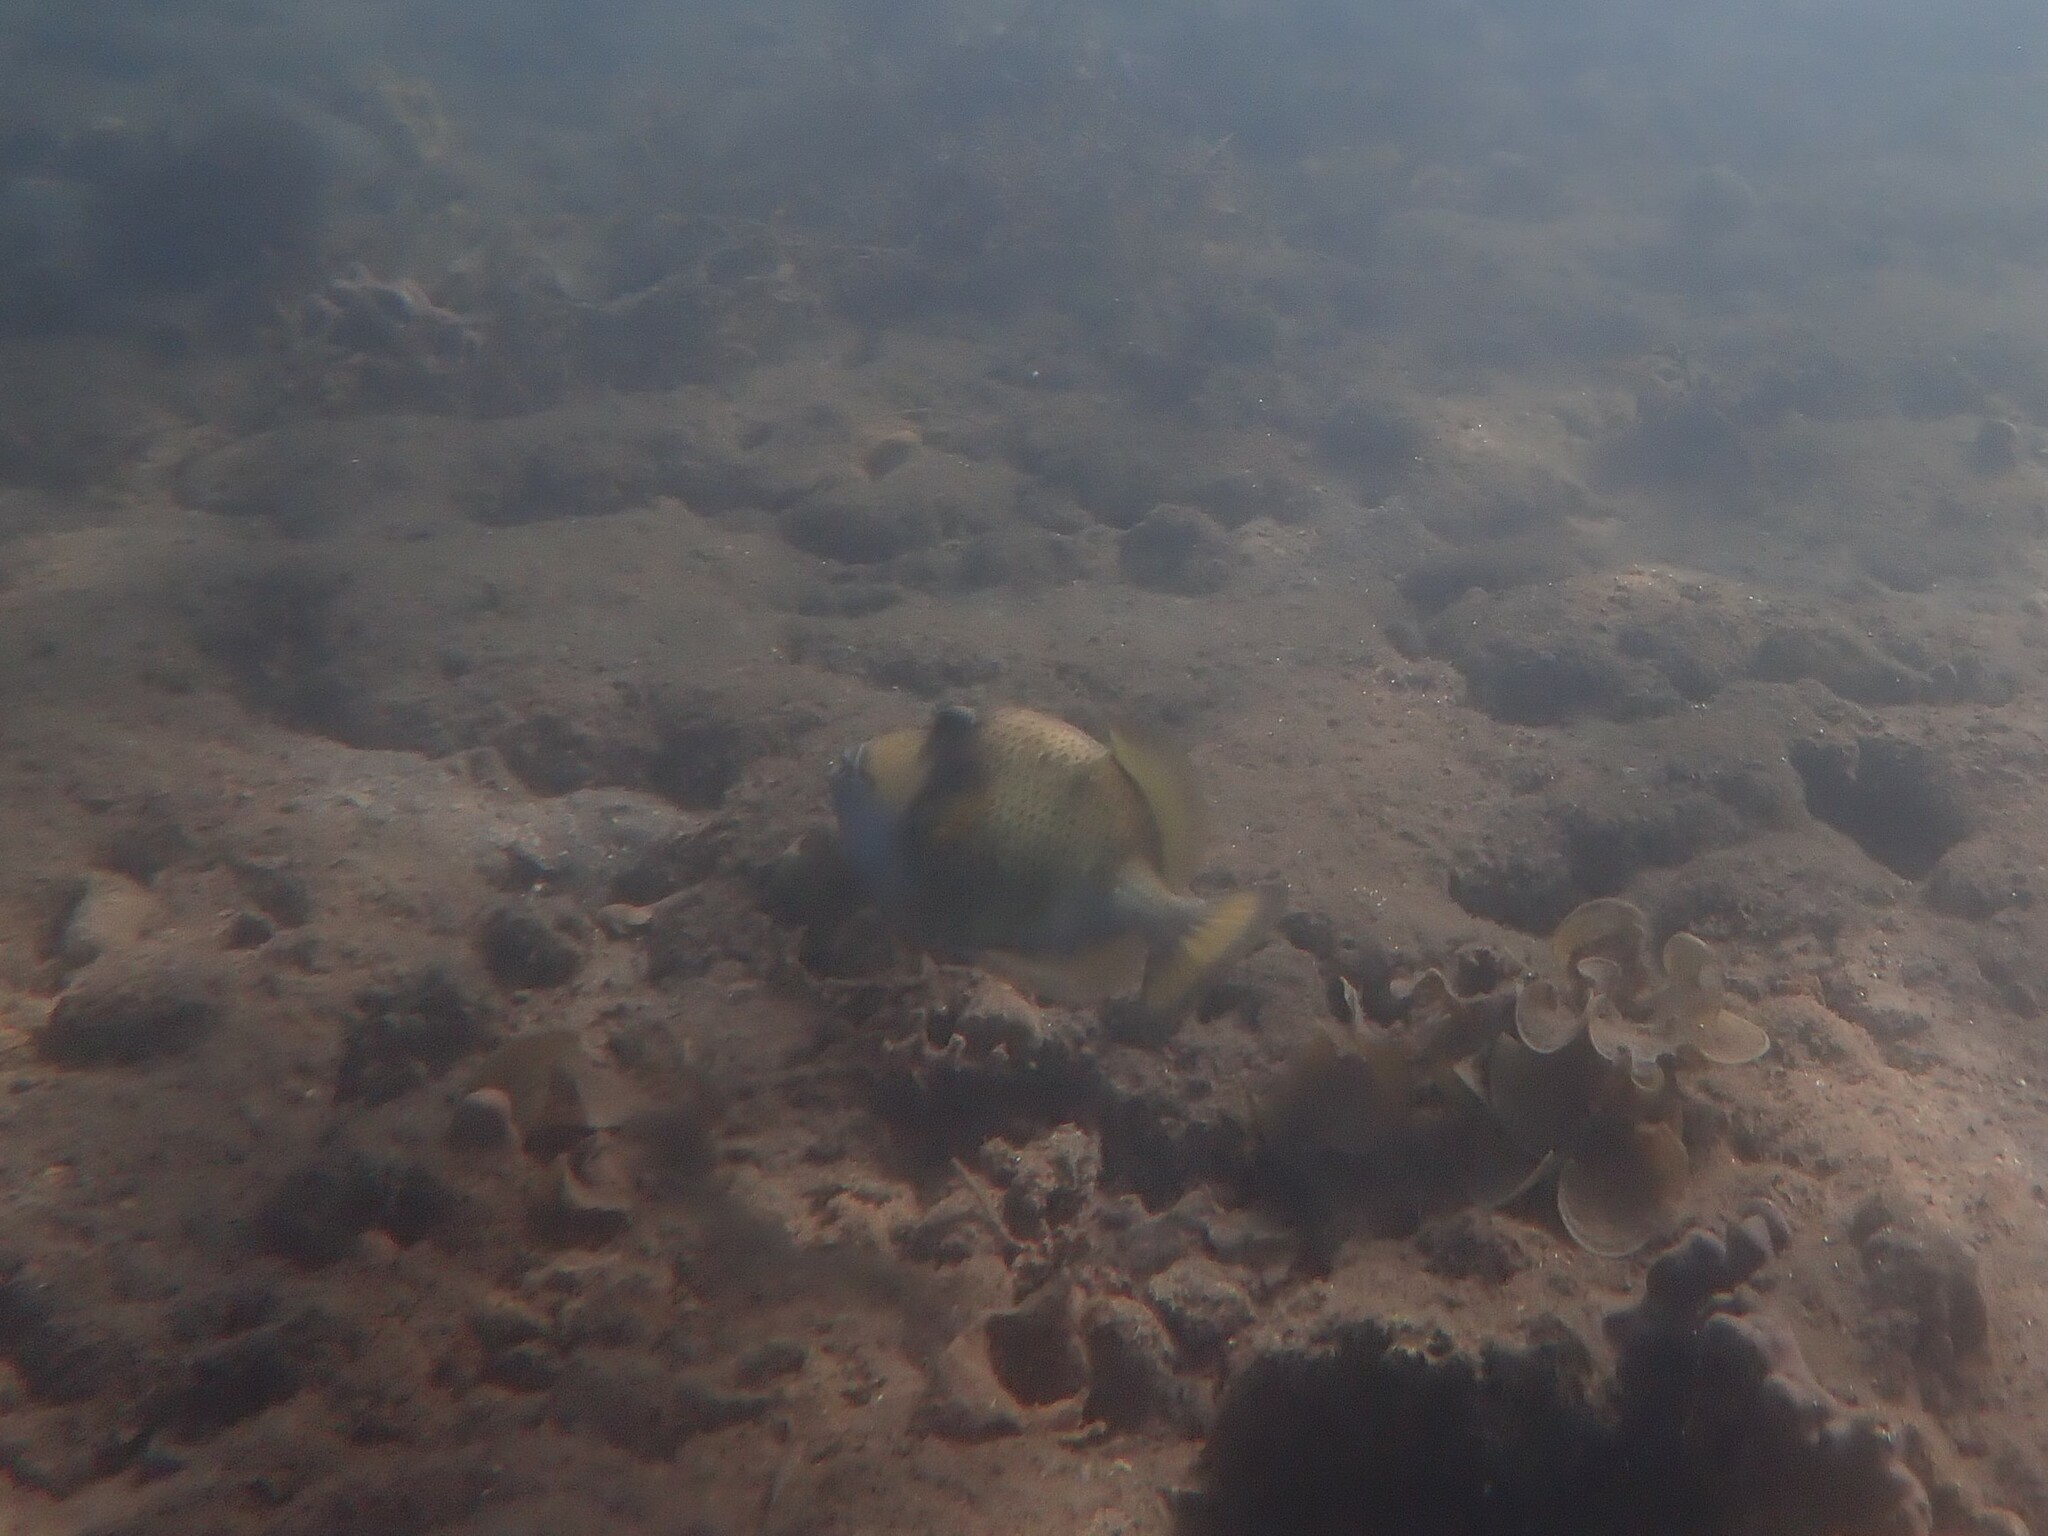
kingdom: Animalia
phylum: Chordata
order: Tetraodontiformes
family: Balistidae
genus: Balistoides
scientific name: Balistoides viridescens
